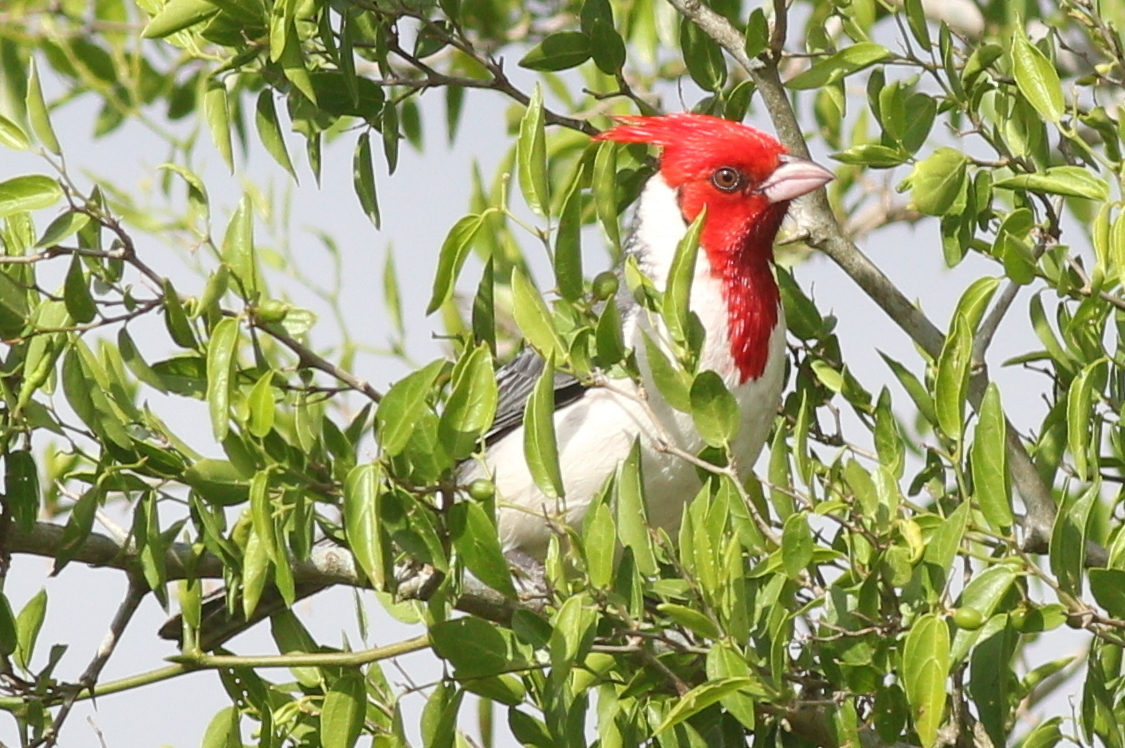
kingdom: Animalia
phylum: Chordata
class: Aves
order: Passeriformes
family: Thraupidae
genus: Paroaria
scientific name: Paroaria coronata
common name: Red-crested cardinal
